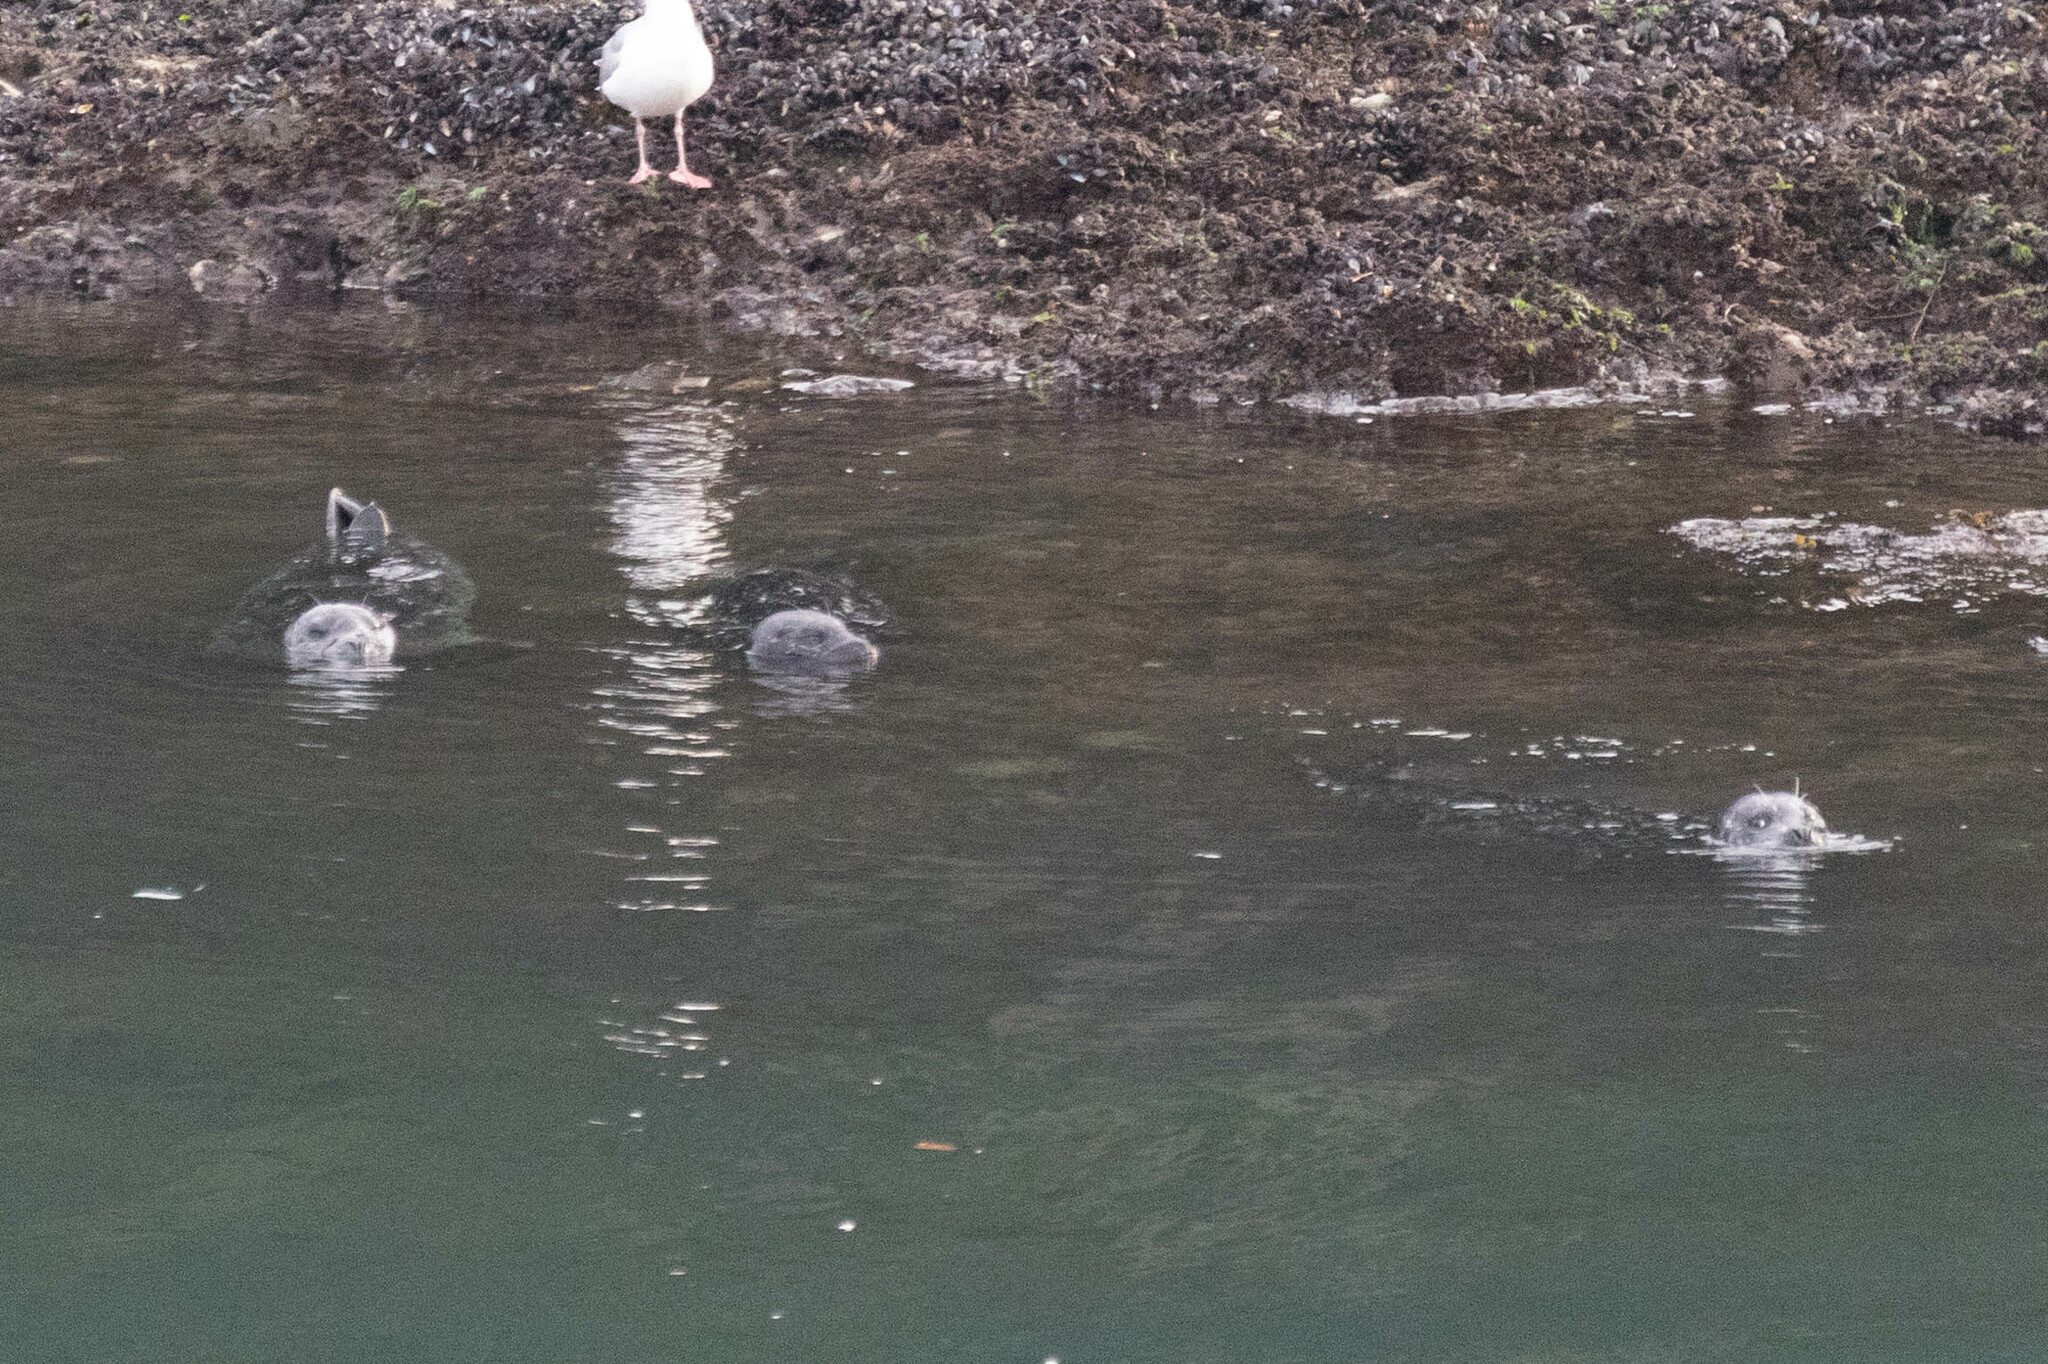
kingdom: Animalia
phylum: Chordata
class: Mammalia
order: Carnivora
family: Phocidae
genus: Phoca
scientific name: Phoca vitulina
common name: Harbor seal
